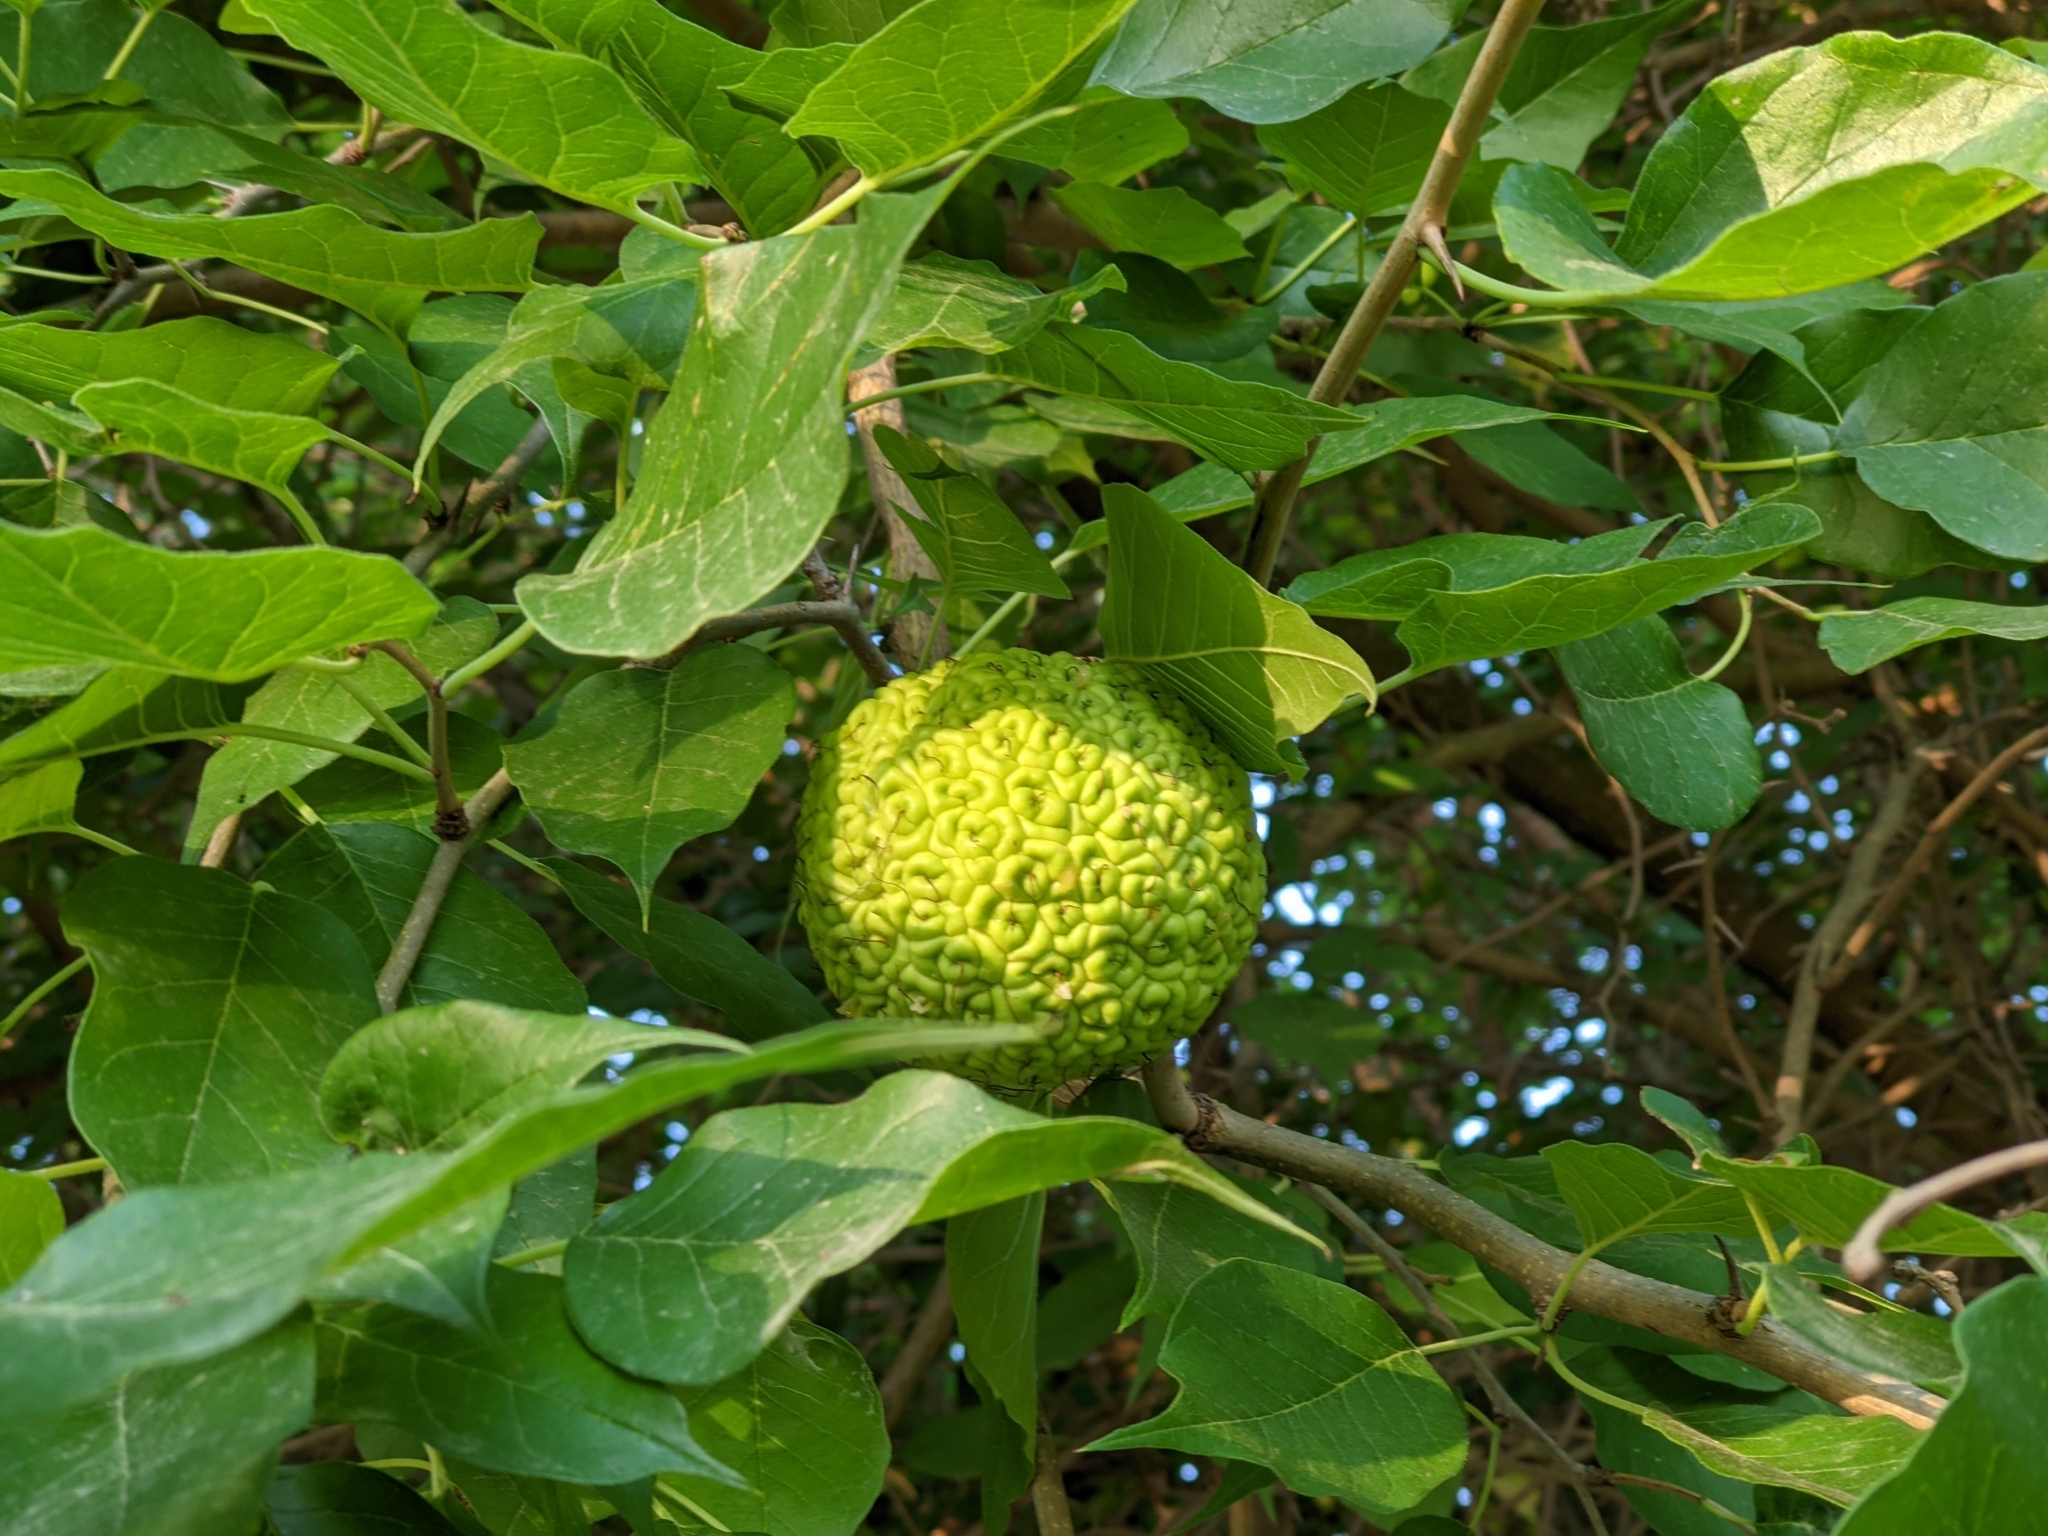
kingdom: Plantae
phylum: Tracheophyta
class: Magnoliopsida
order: Rosales
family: Moraceae
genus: Maclura
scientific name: Maclura pomifera
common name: Osage-orange
